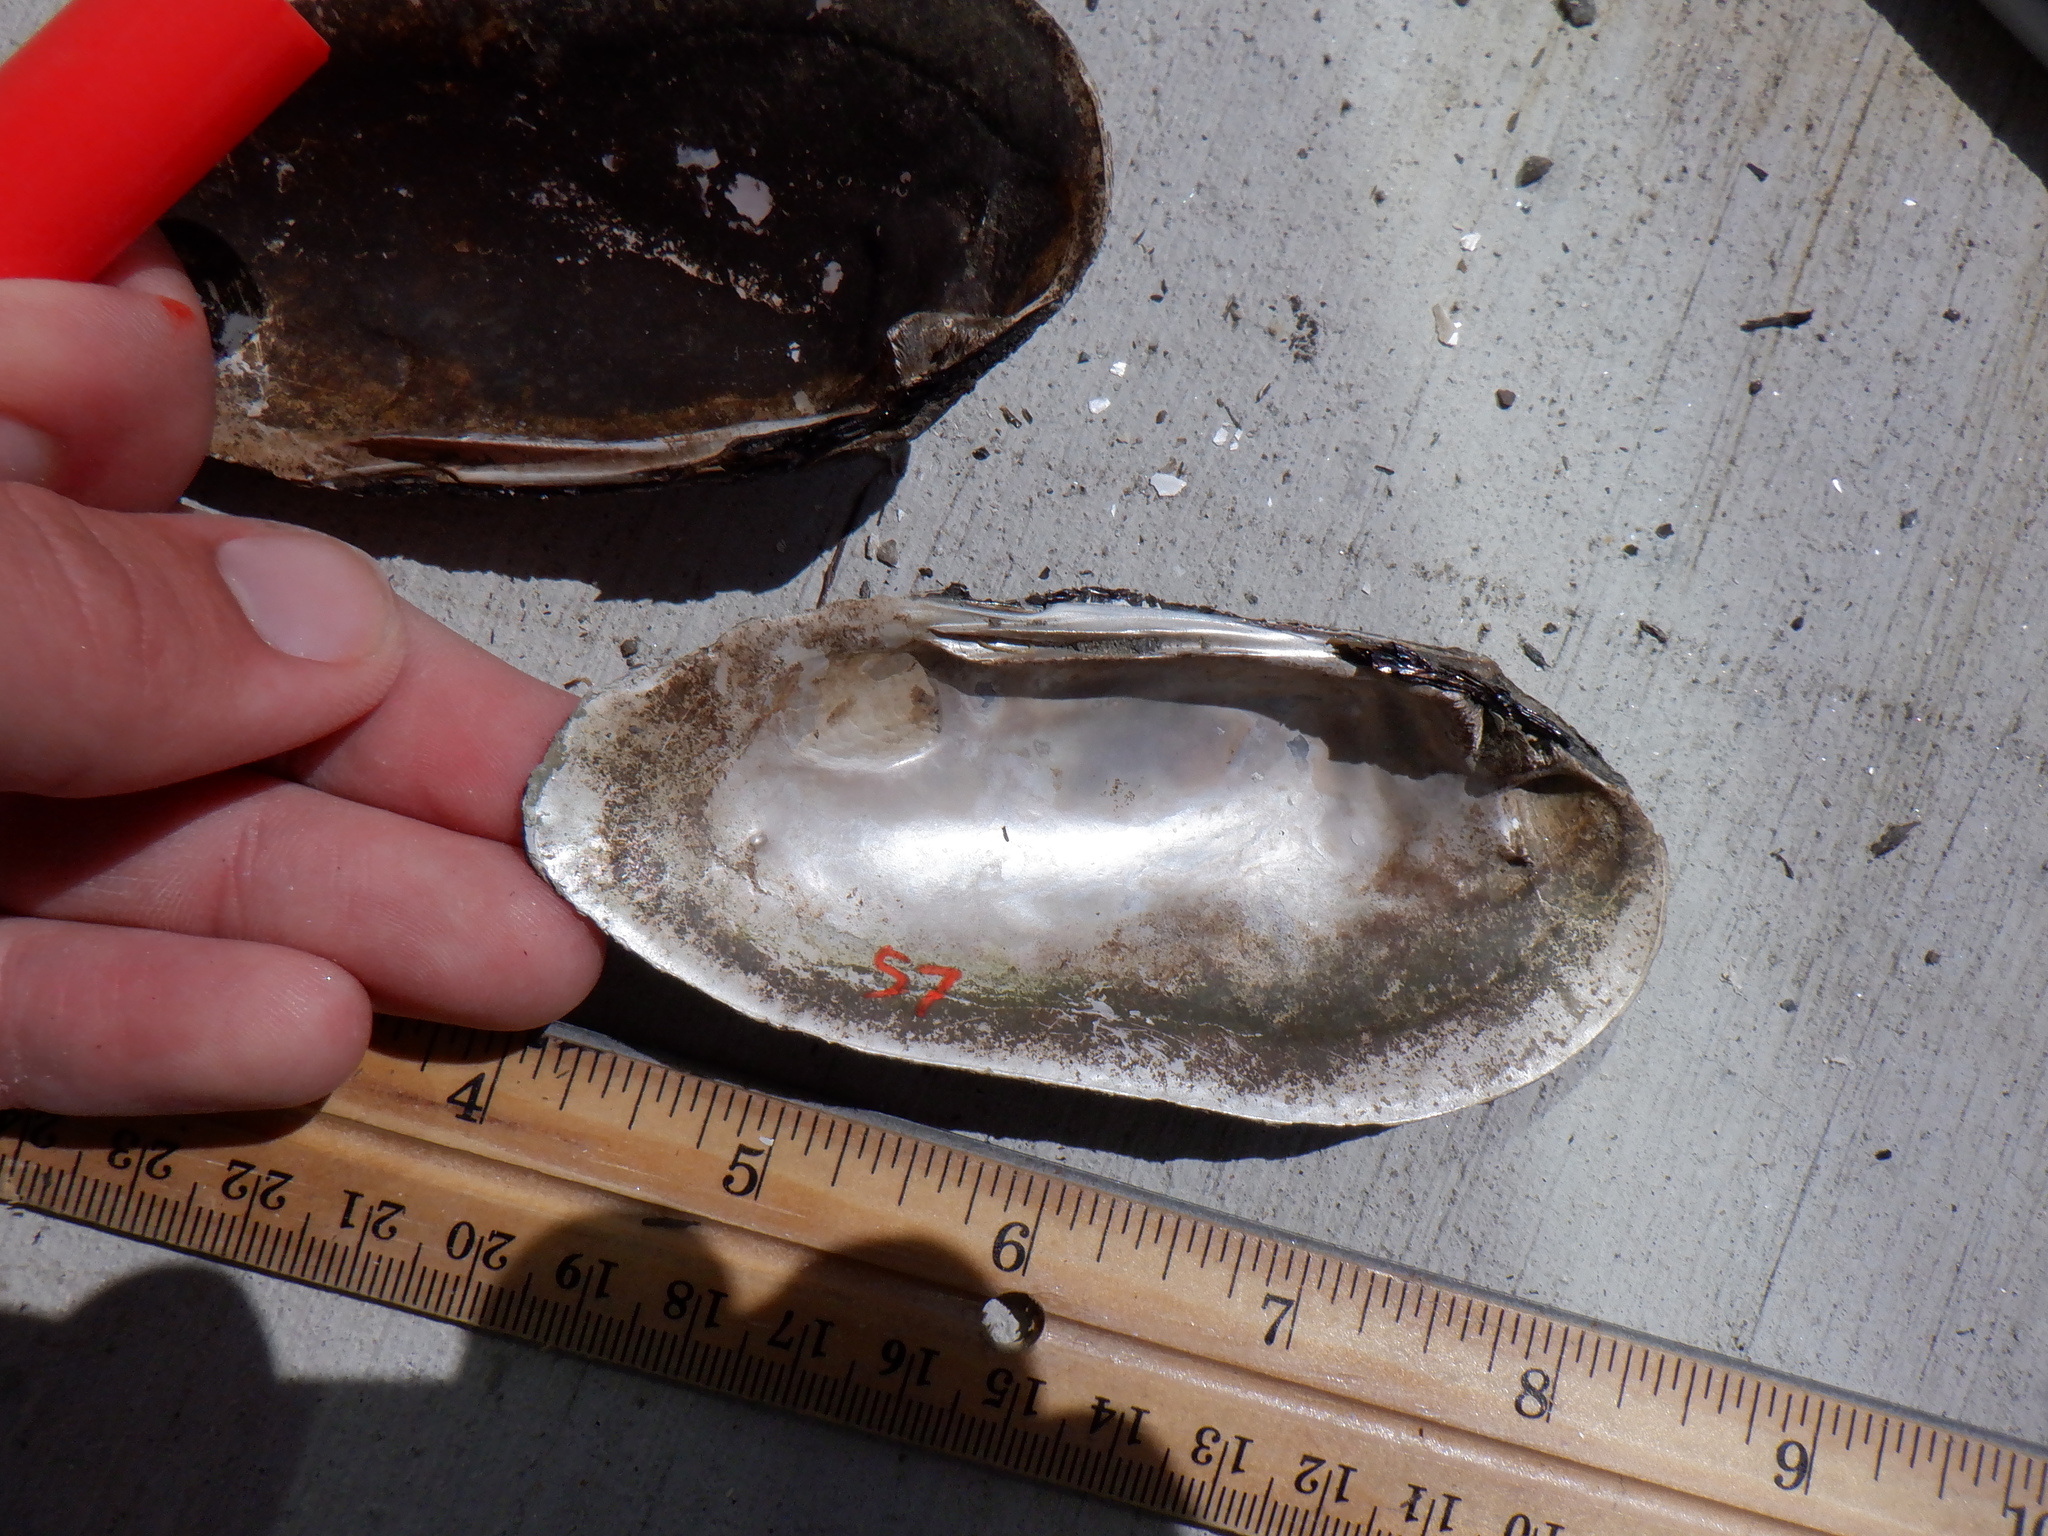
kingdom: Animalia
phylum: Mollusca
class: Bivalvia
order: Unionida
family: Unionidae
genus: Eurynia
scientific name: Eurynia dilatata
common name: Spike
